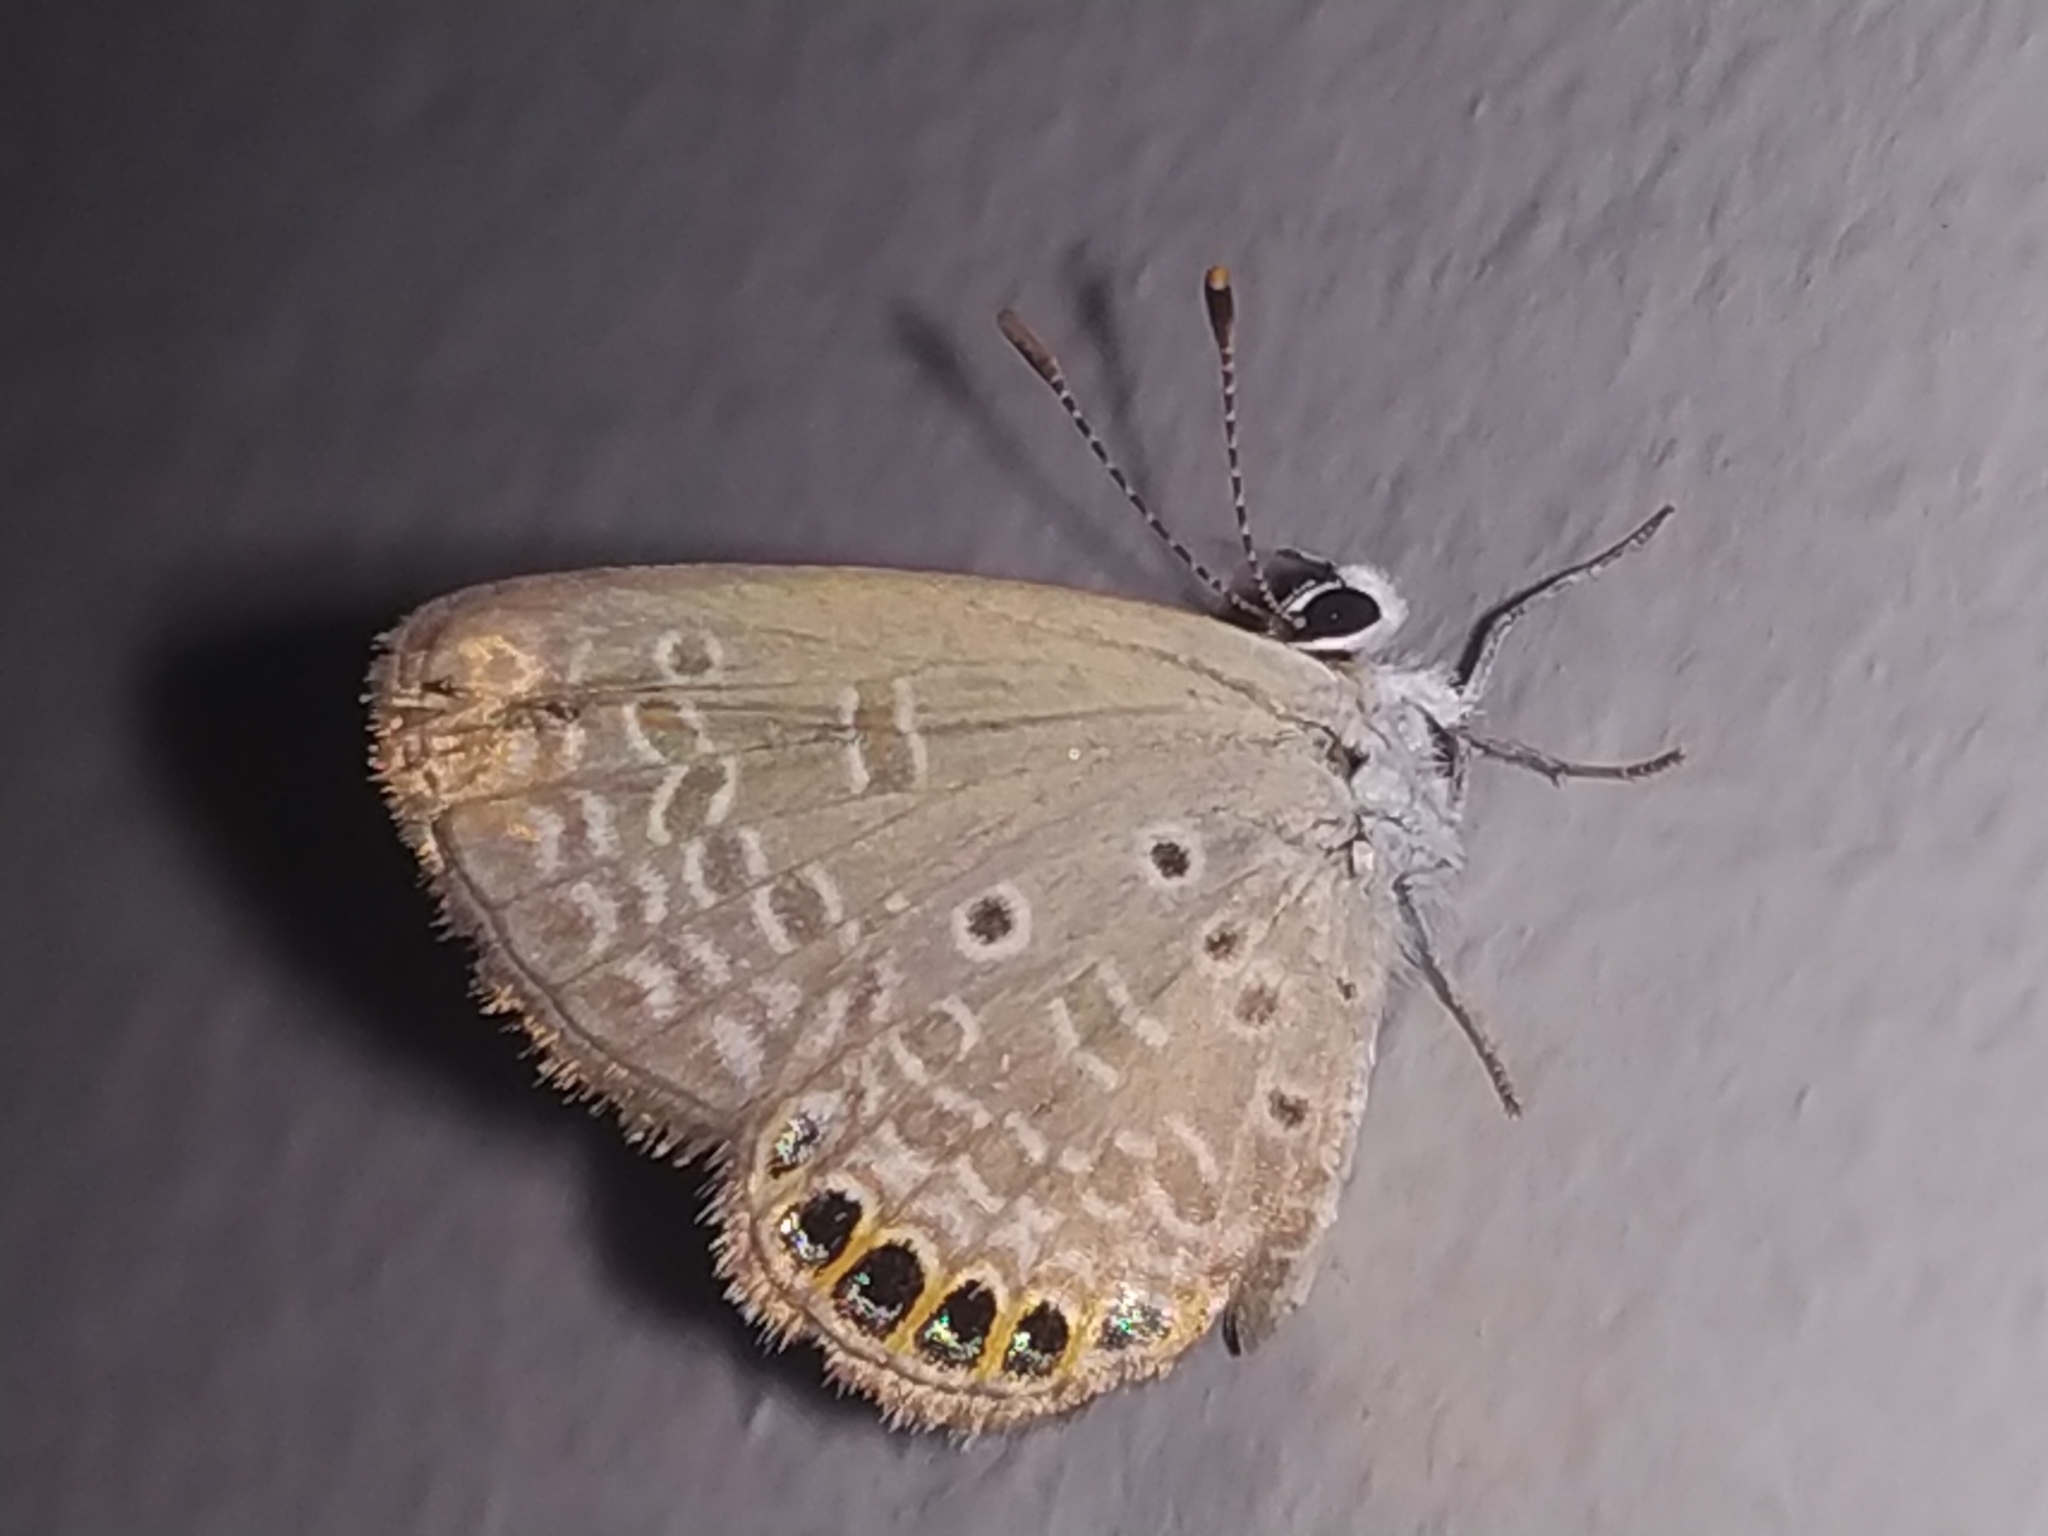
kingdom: Animalia
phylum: Arthropoda
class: Insecta
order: Lepidoptera
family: Lycaenidae
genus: Freyeria
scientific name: Freyeria putli
